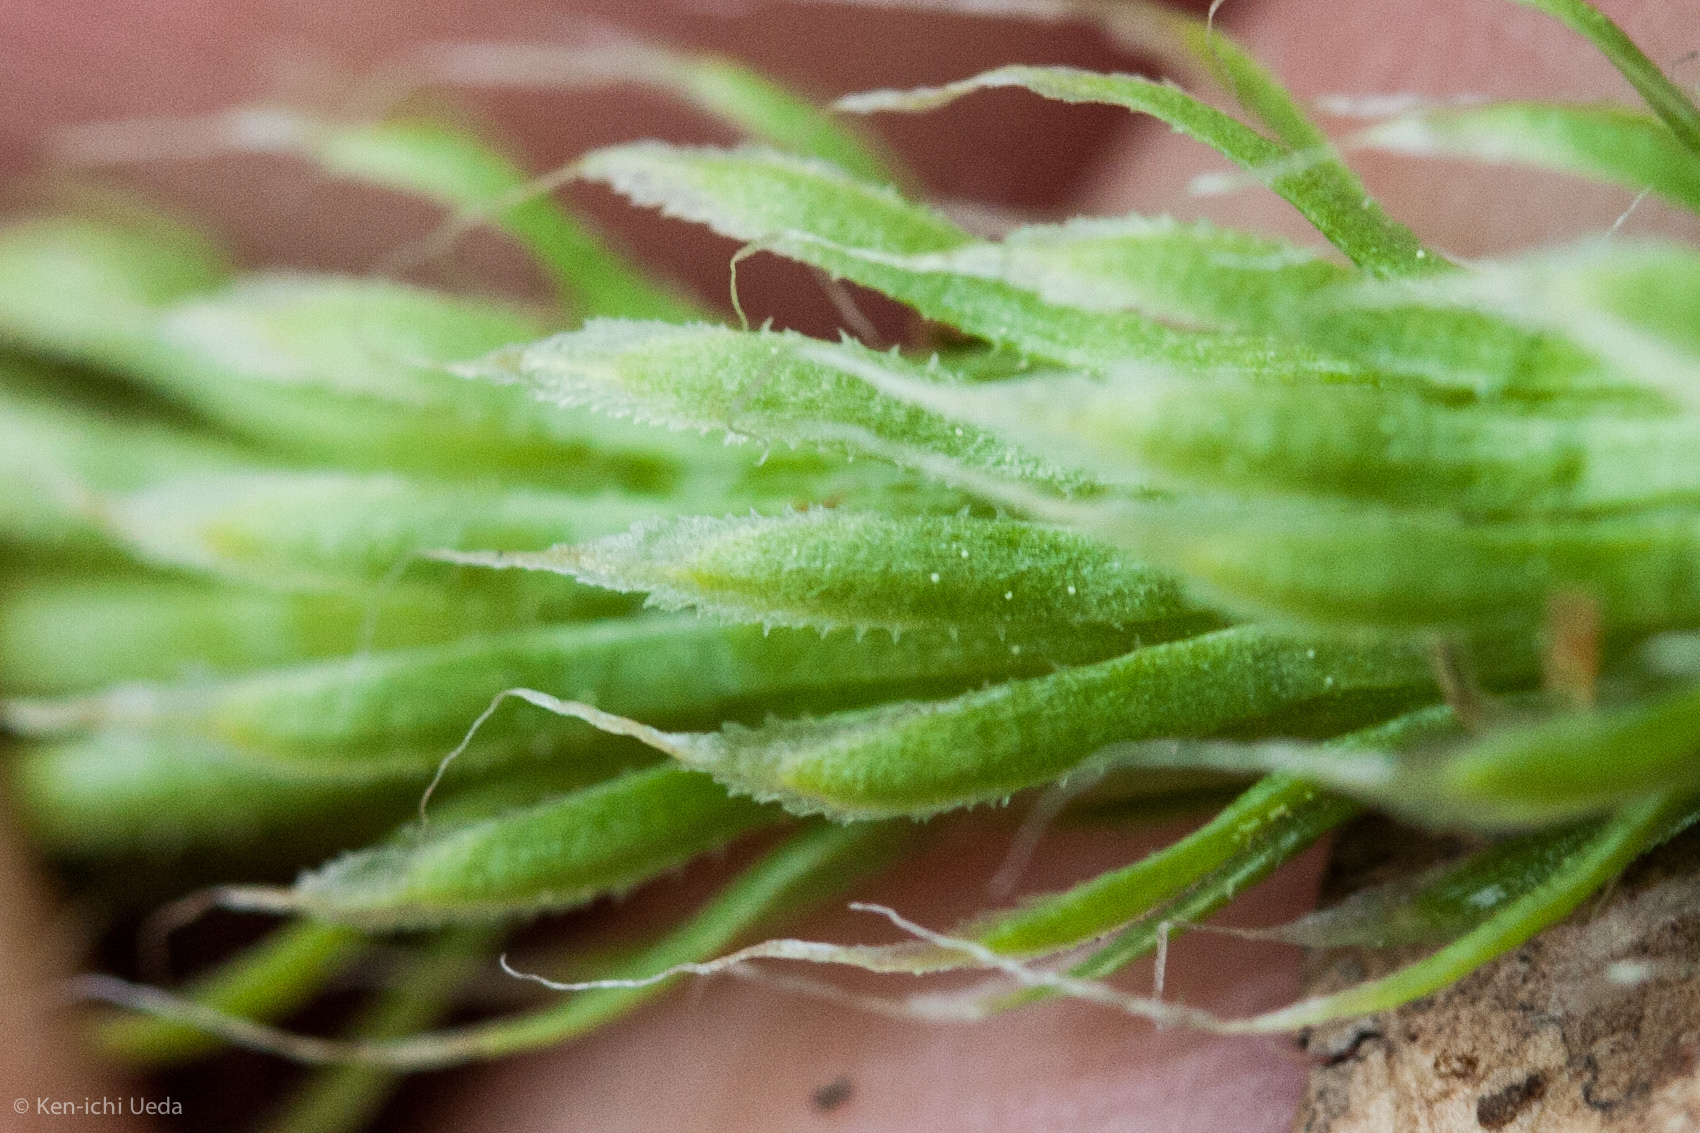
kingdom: Plantae
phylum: Tracheophyta
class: Lycopodiopsida
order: Lycopodiales
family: Lycopodiaceae
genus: Lycopodium
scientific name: Lycopodium clavatum
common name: Stag's-horn clubmoss
